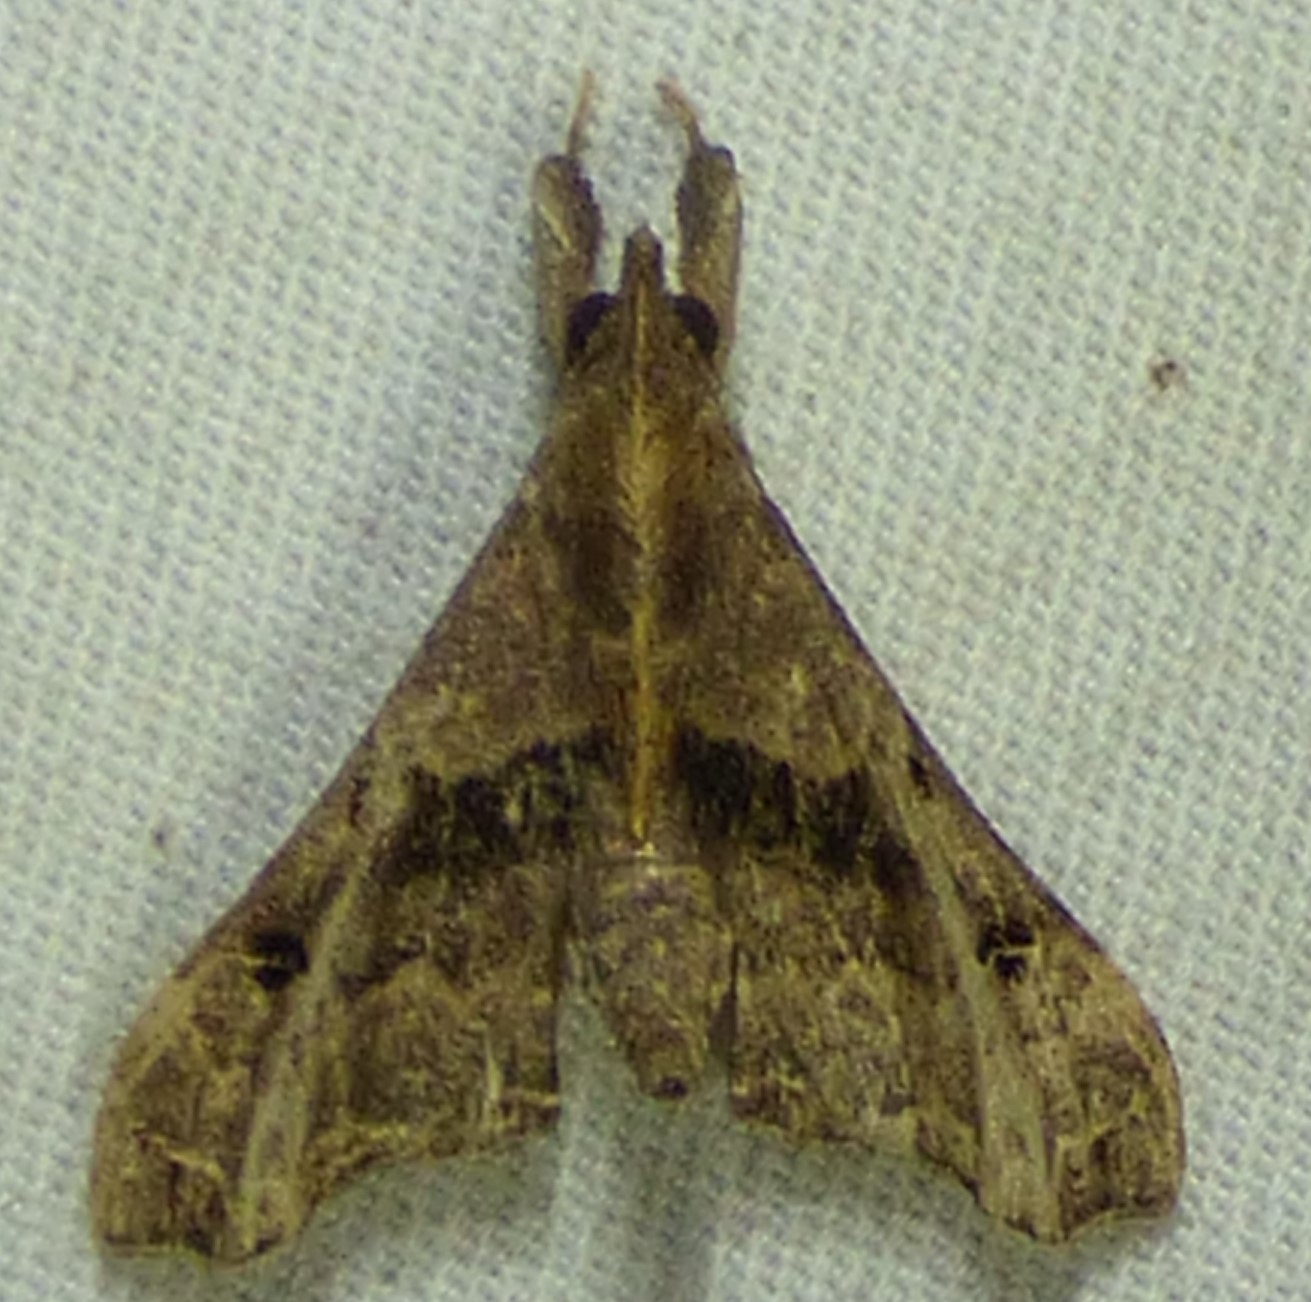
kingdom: Animalia
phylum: Arthropoda
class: Insecta
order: Lepidoptera
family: Erebidae
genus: Palthis
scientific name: Palthis asopialis
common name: Faint-spotted palthis moth
